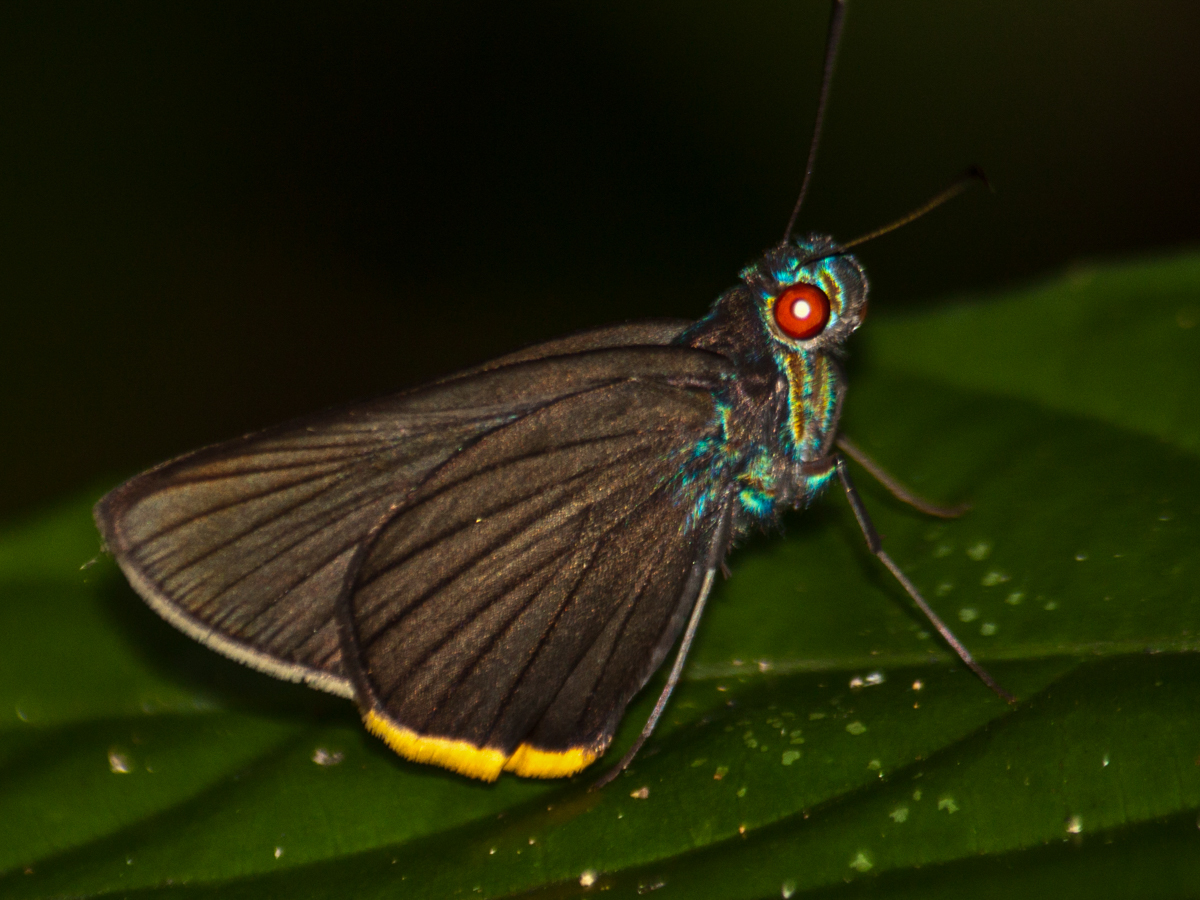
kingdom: Animalia
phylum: Arthropoda
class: Insecta
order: Lepidoptera
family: Hesperiidae
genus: Matapa
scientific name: Matapa sasivarna
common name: Black-veined redeye
